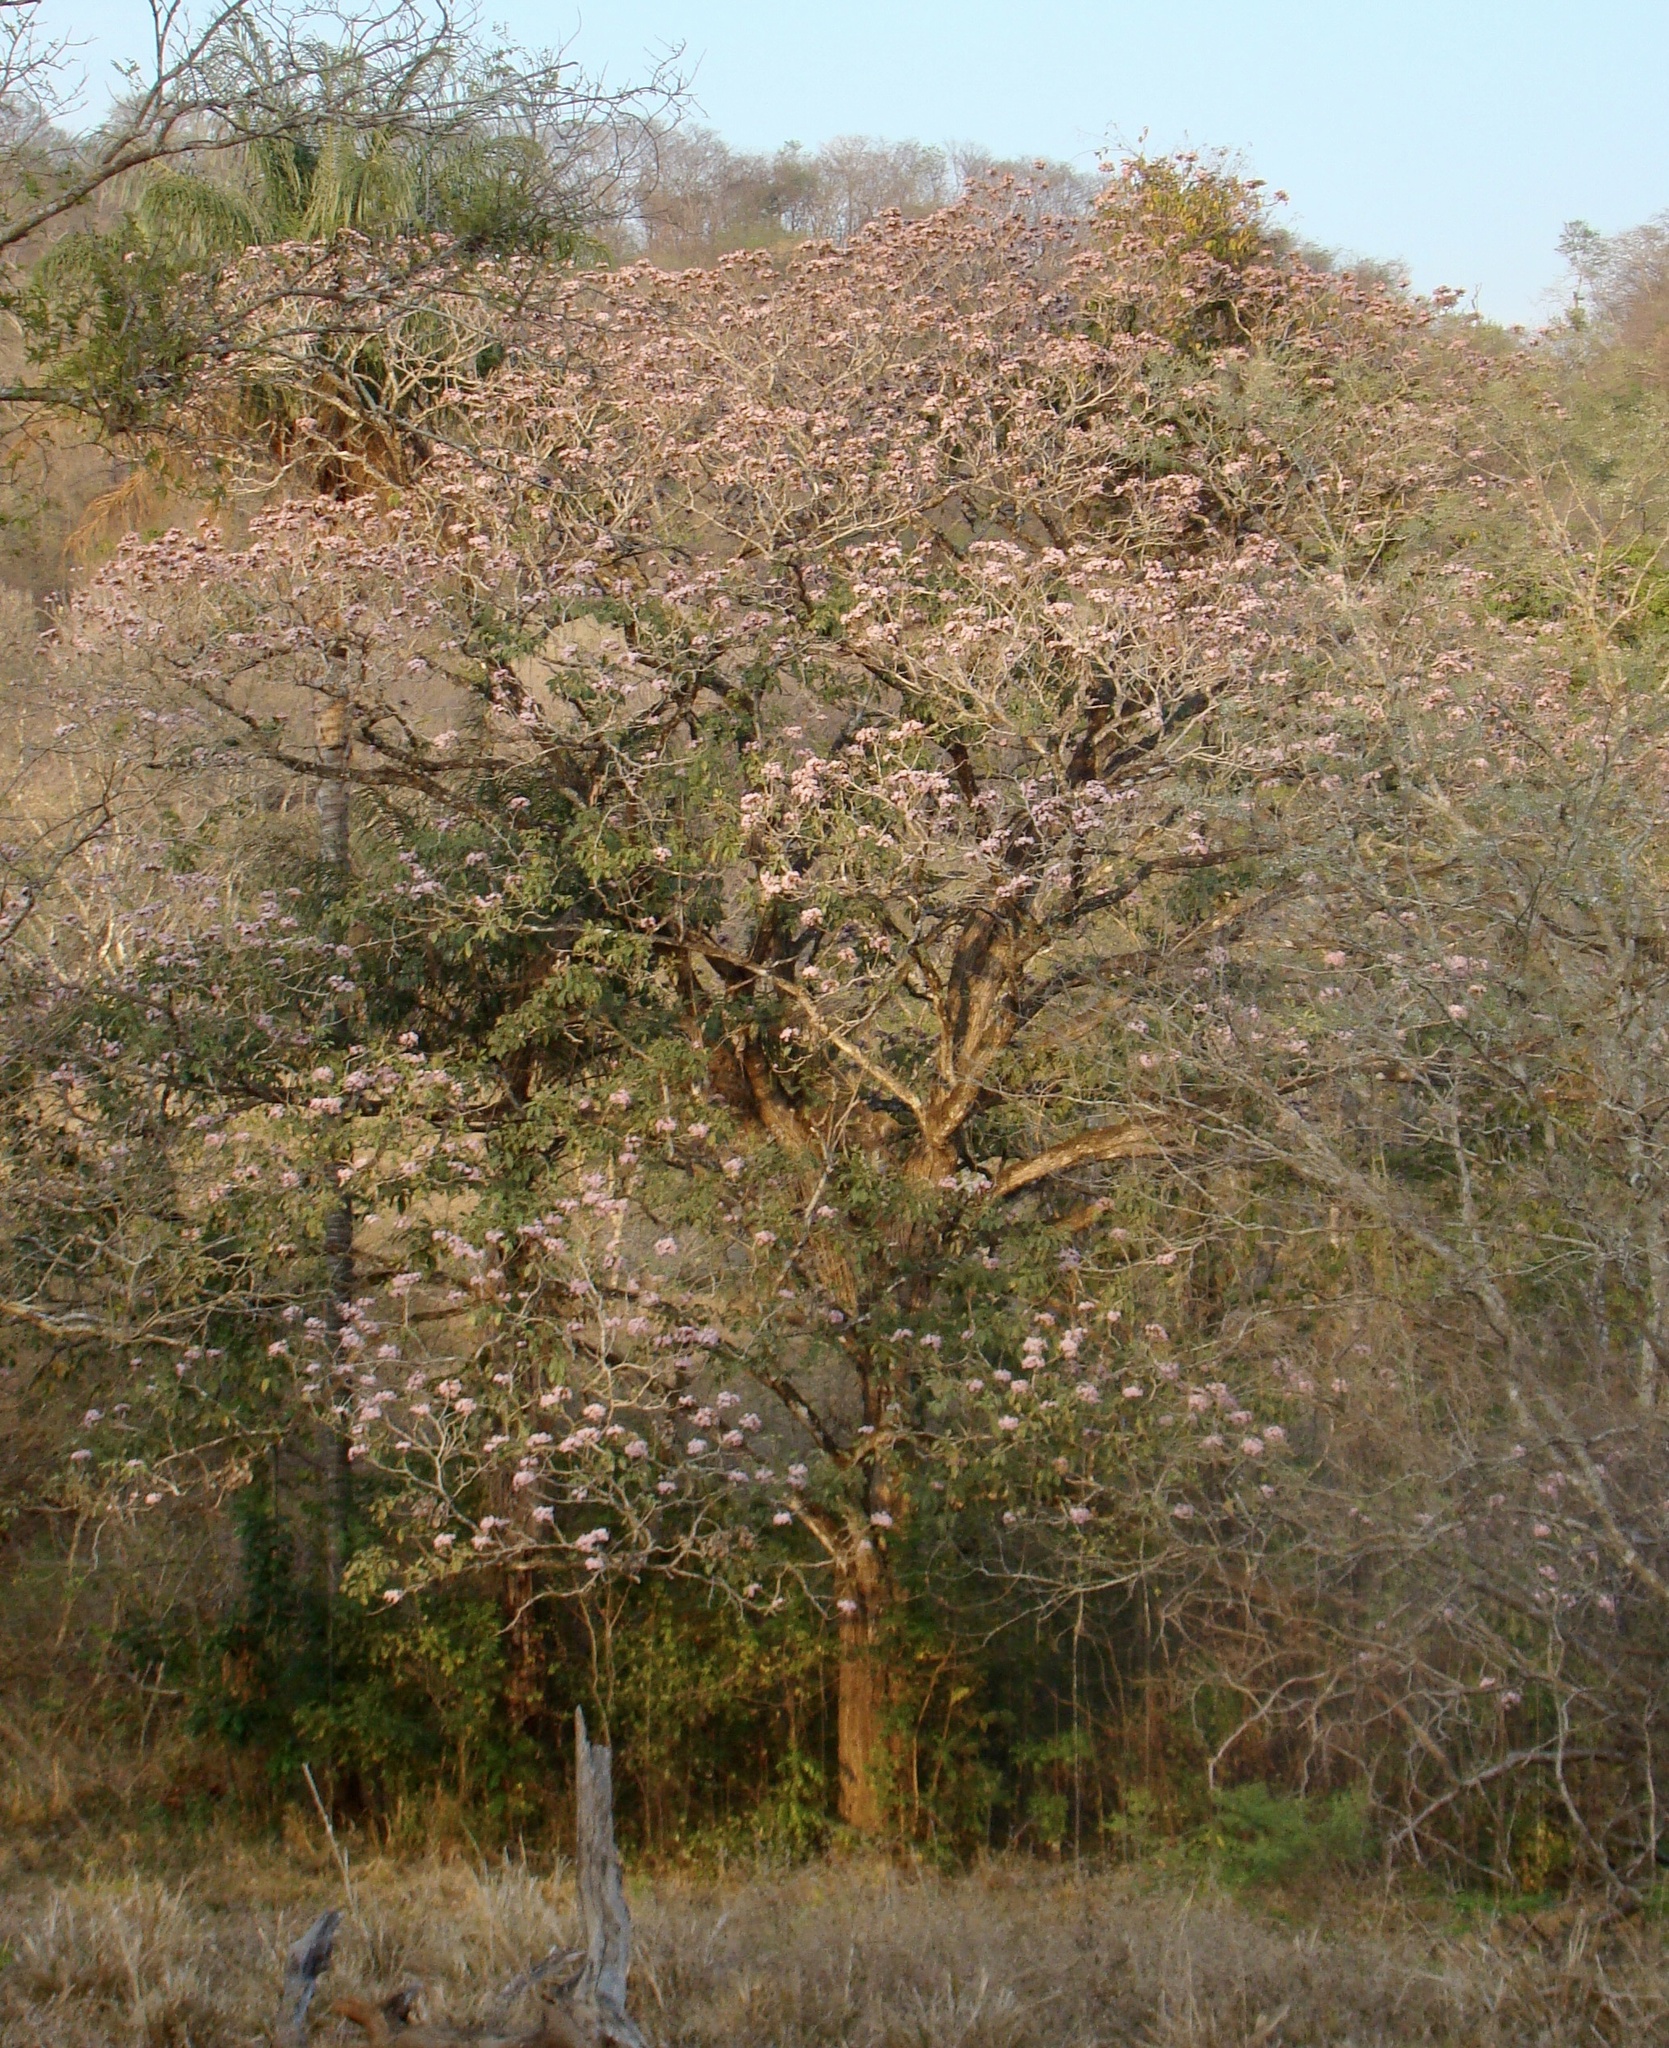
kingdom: Plantae
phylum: Tracheophyta
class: Magnoliopsida
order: Lamiales
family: Bignoniaceae
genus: Tabebuia
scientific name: Tabebuia rosea
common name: Pink poui
